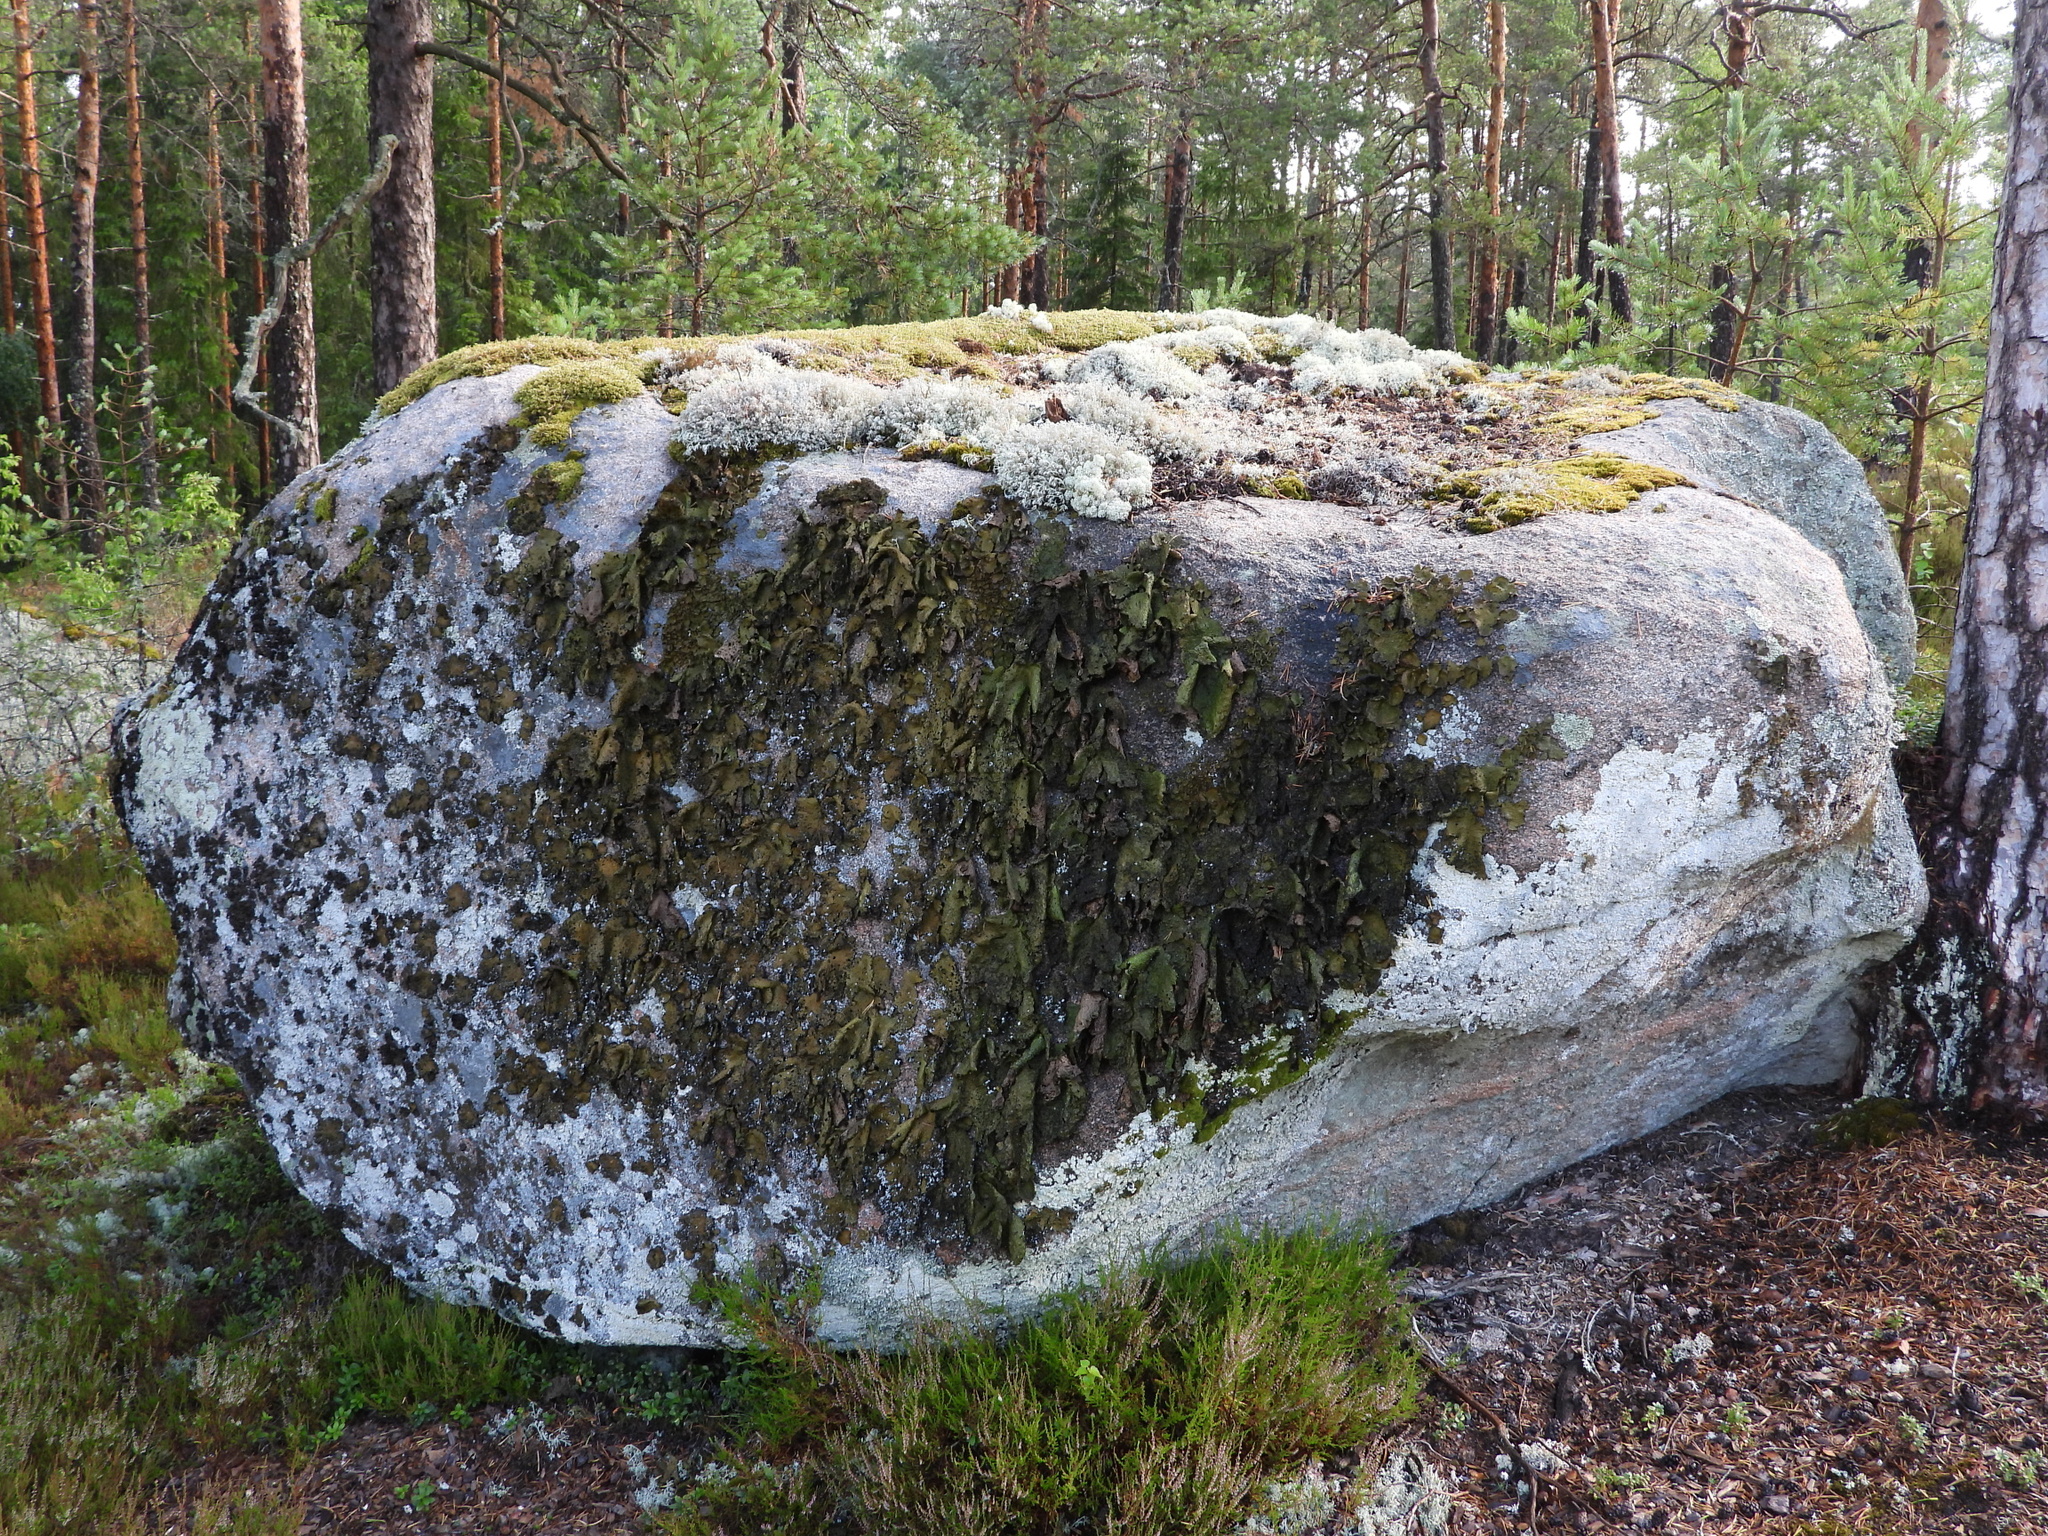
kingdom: Fungi
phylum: Ascomycota
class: Lecanoromycetes
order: Umbilicariales
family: Umbilicariaceae
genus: Lasallia
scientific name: Lasallia pustulata
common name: Blistered toadskin lichen
